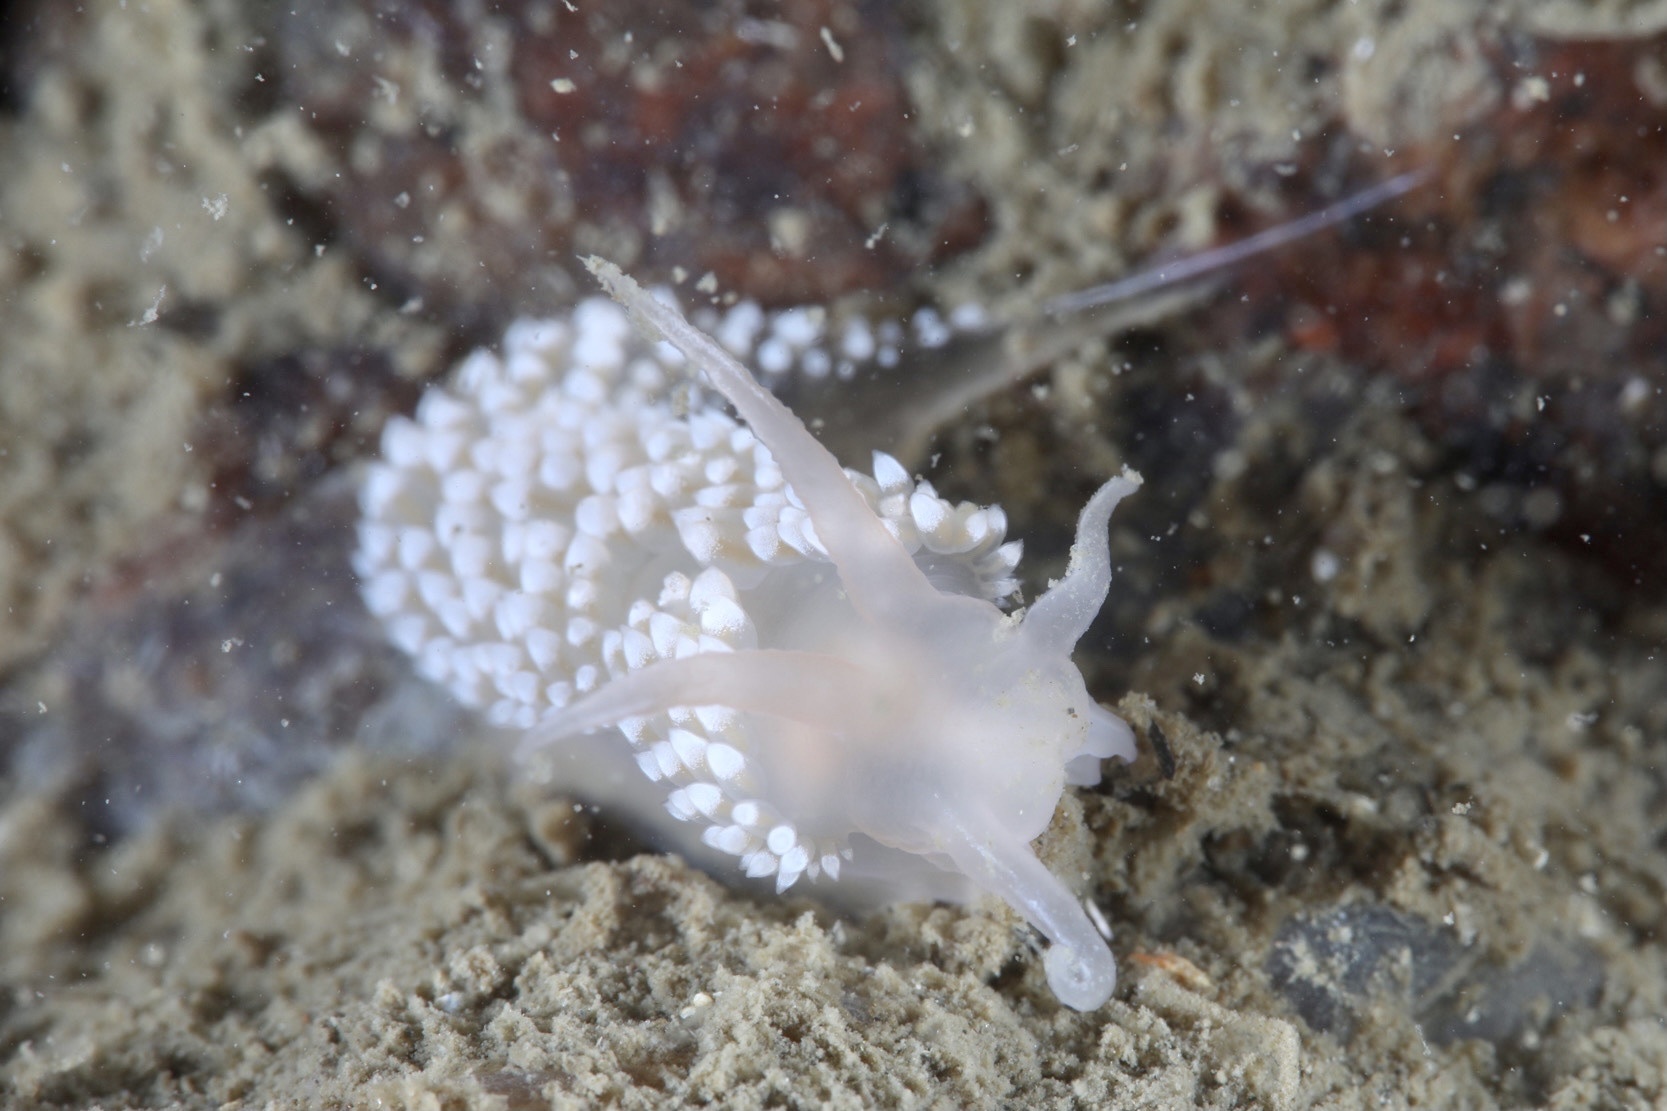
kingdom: Animalia
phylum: Mollusca
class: Gastropoda
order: Nudibranchia
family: Coryphellidae
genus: Coryphella
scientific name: Coryphella verrucosa
